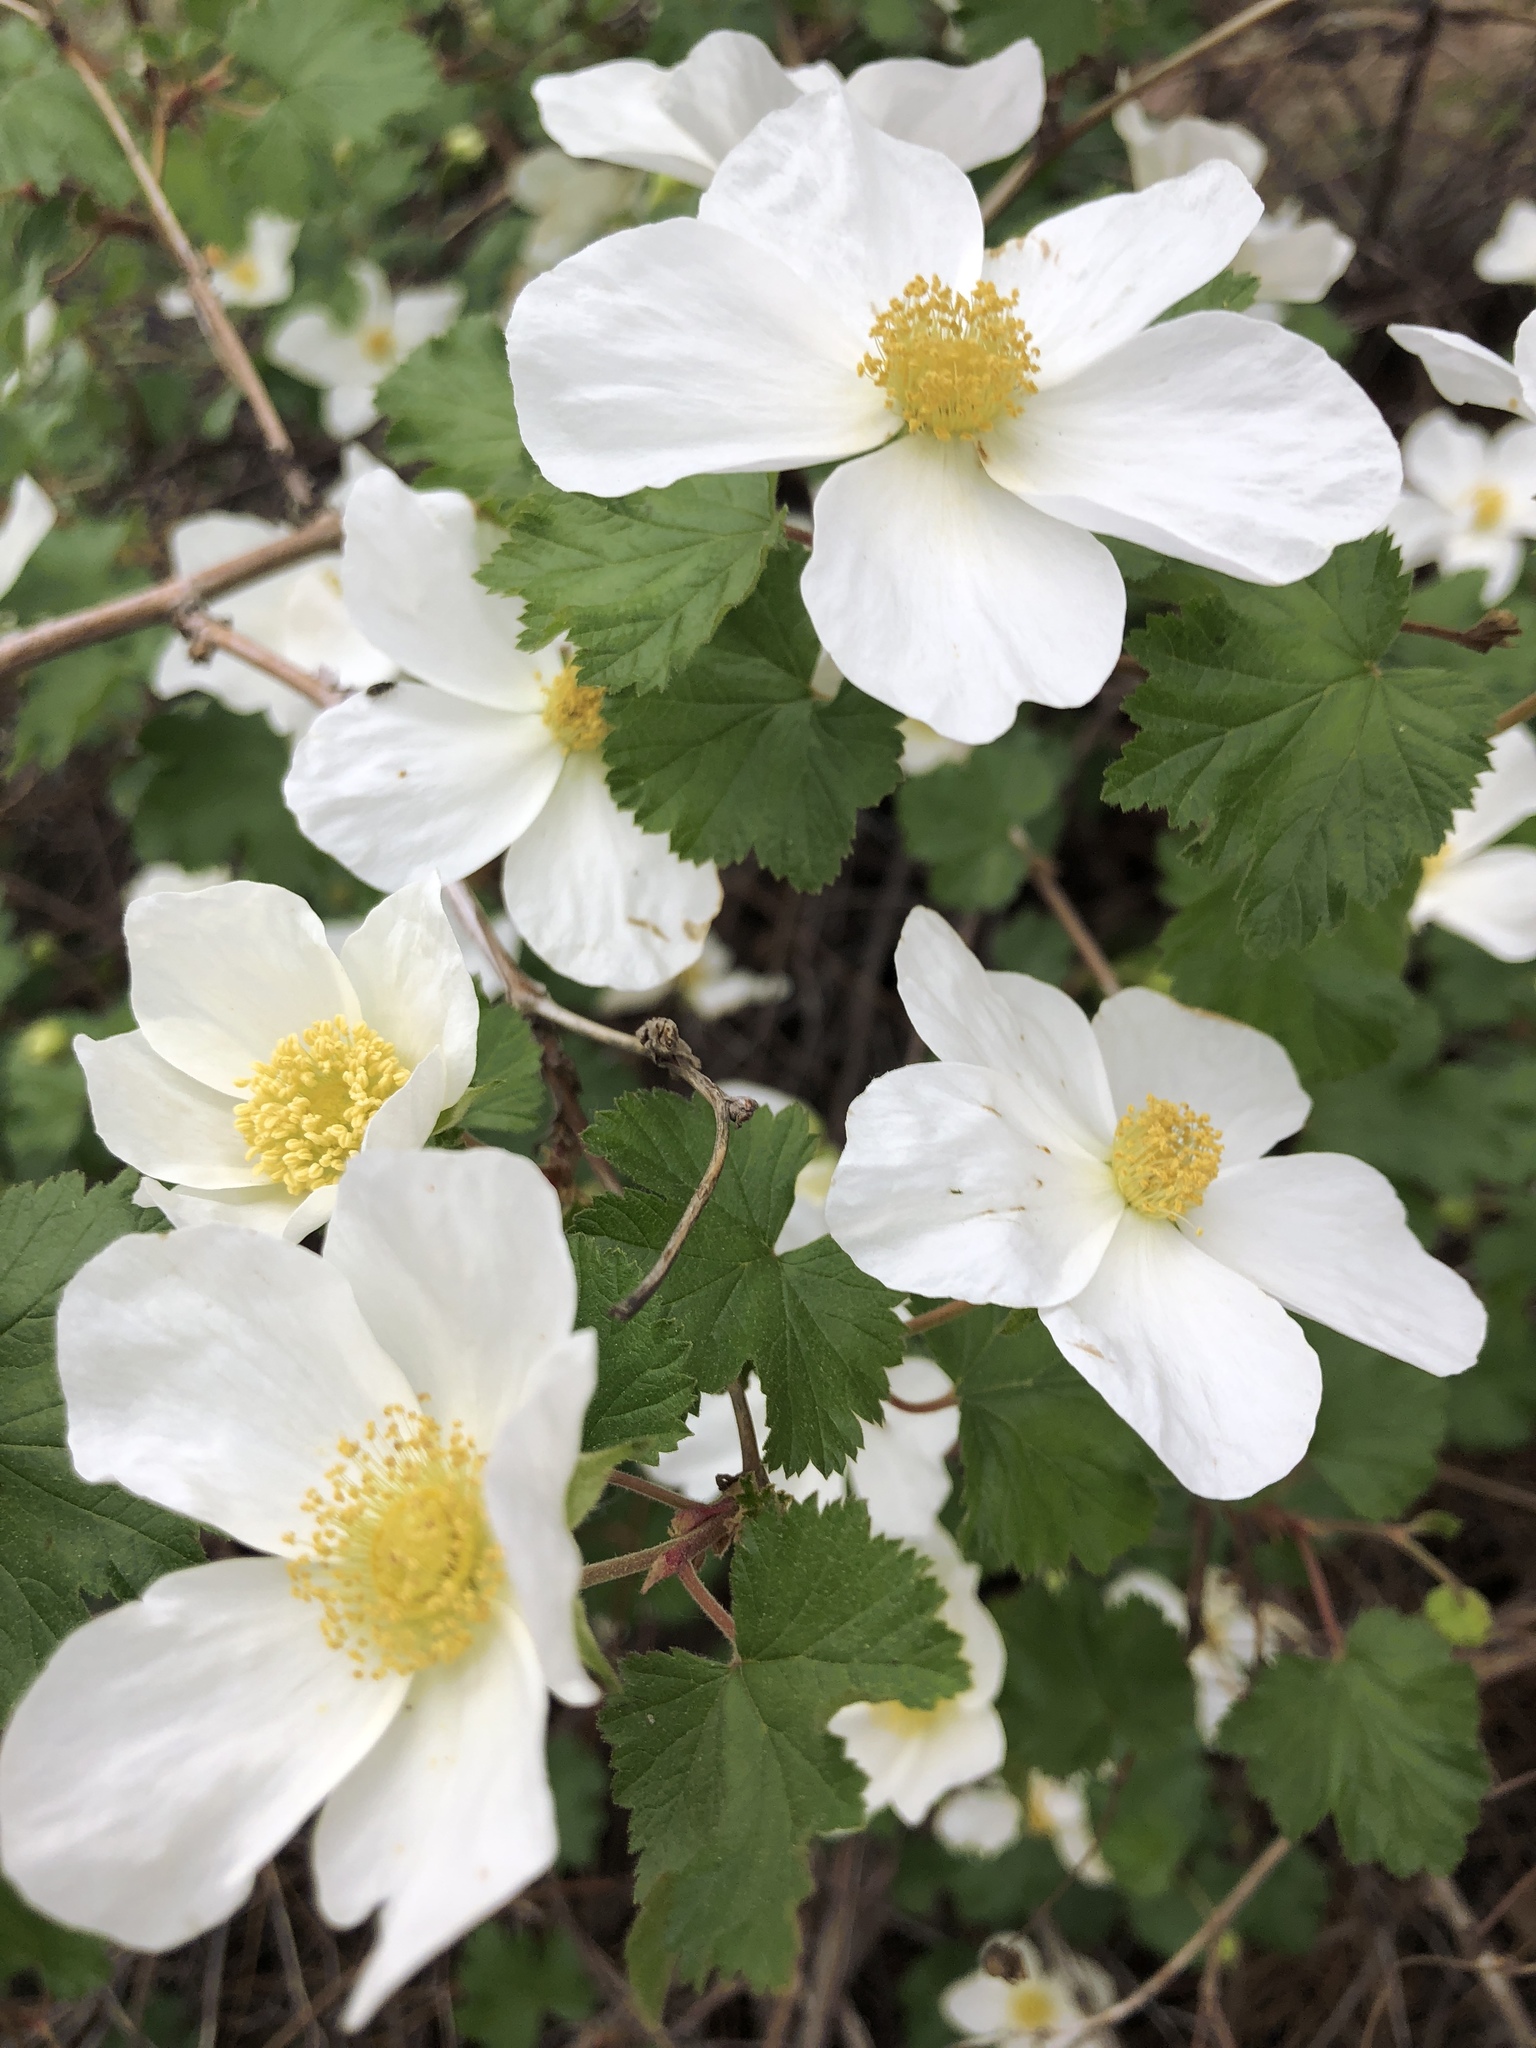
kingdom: Plantae
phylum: Tracheophyta
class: Magnoliopsida
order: Rosales
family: Rosaceae
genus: Rubus
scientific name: Rubus deliciosus
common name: Rocky mountain raspberry
